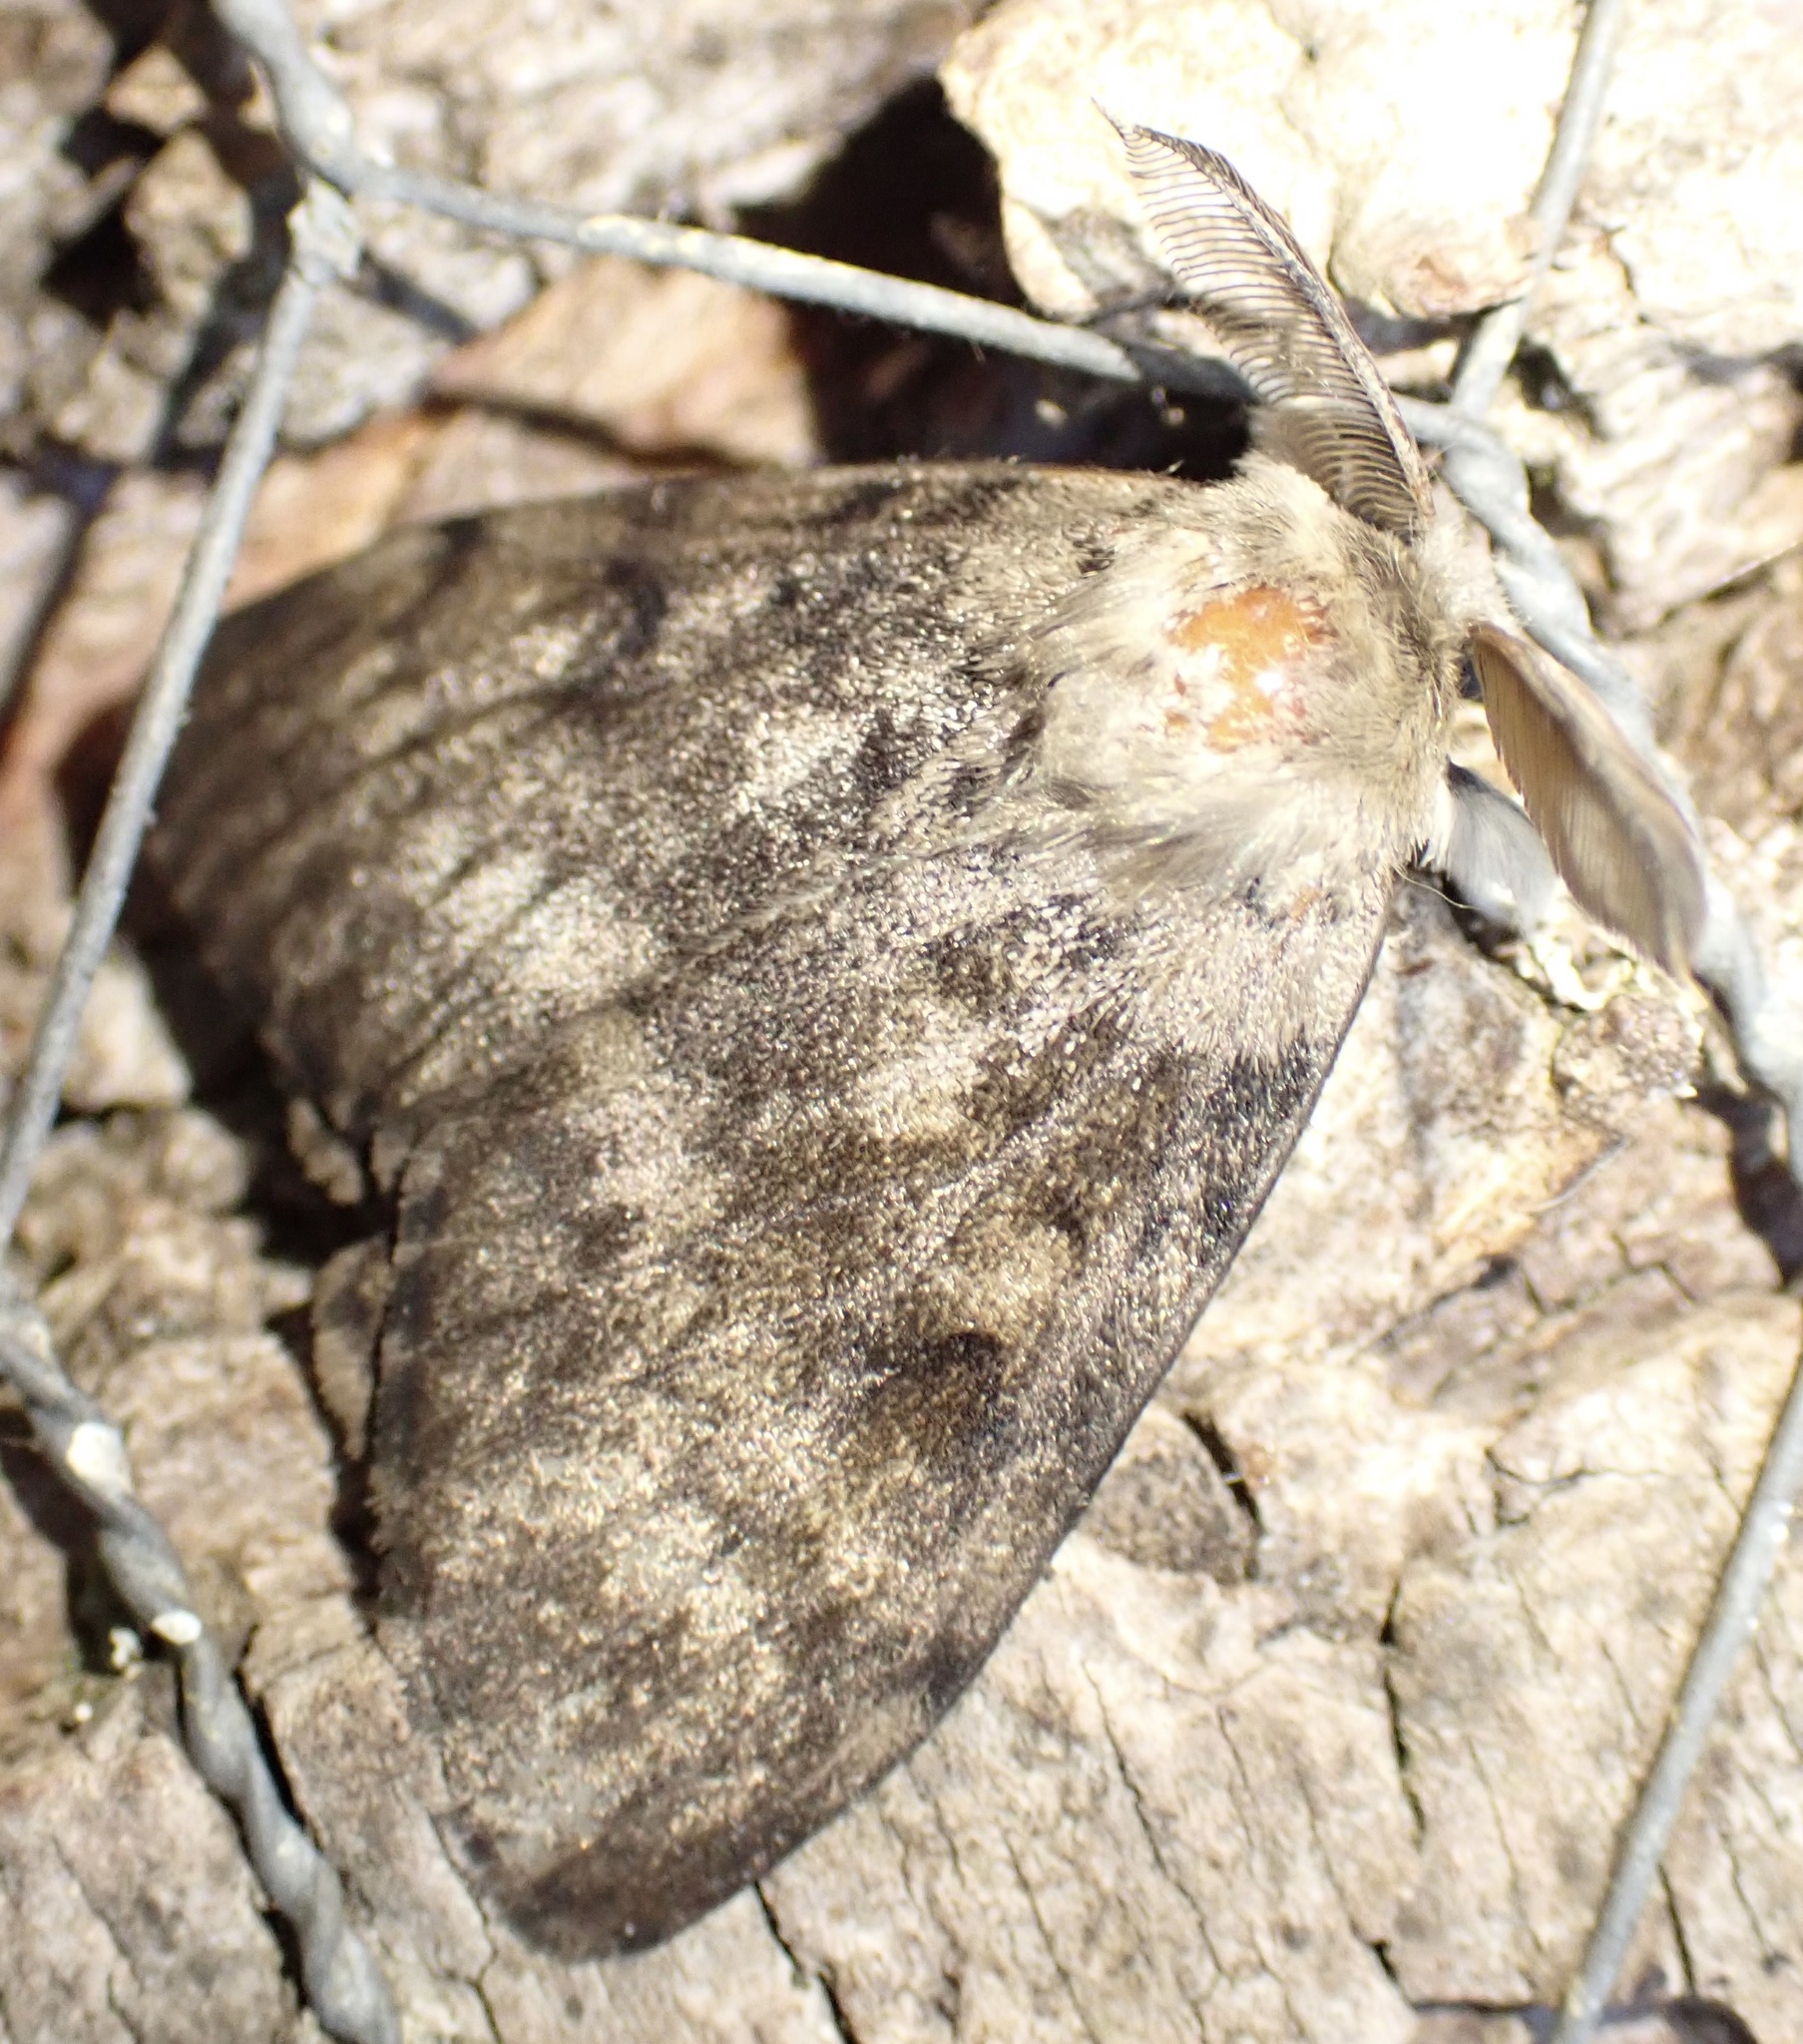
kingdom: Animalia
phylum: Arthropoda
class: Insecta
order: Lepidoptera
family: Erebidae
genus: Lymantria
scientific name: Lymantria dispar
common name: Gypsy moth
